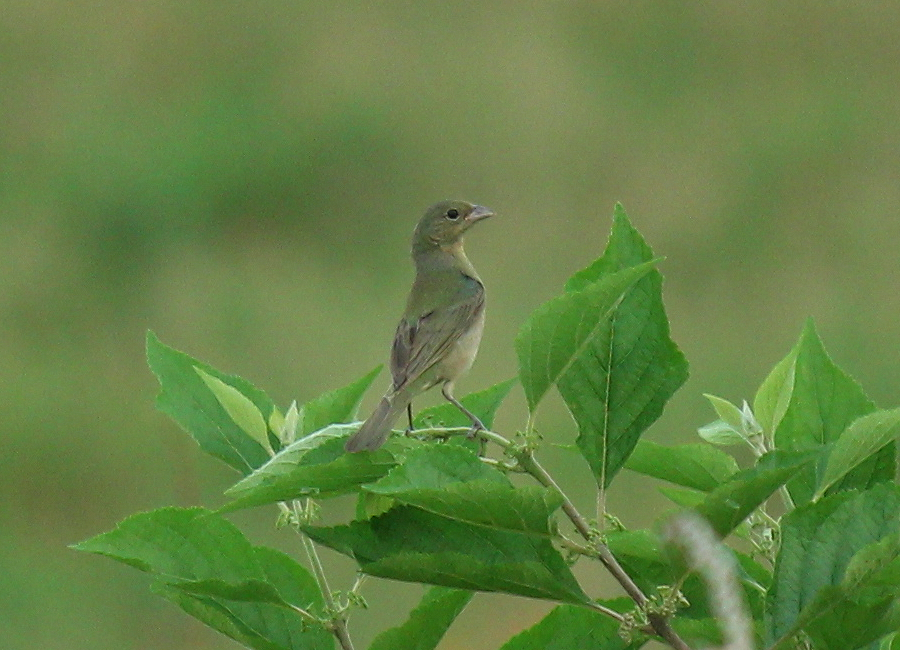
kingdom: Animalia
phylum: Chordata
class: Aves
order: Passeriformes
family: Cardinalidae
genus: Passerina
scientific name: Passerina ciris
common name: Painted bunting
